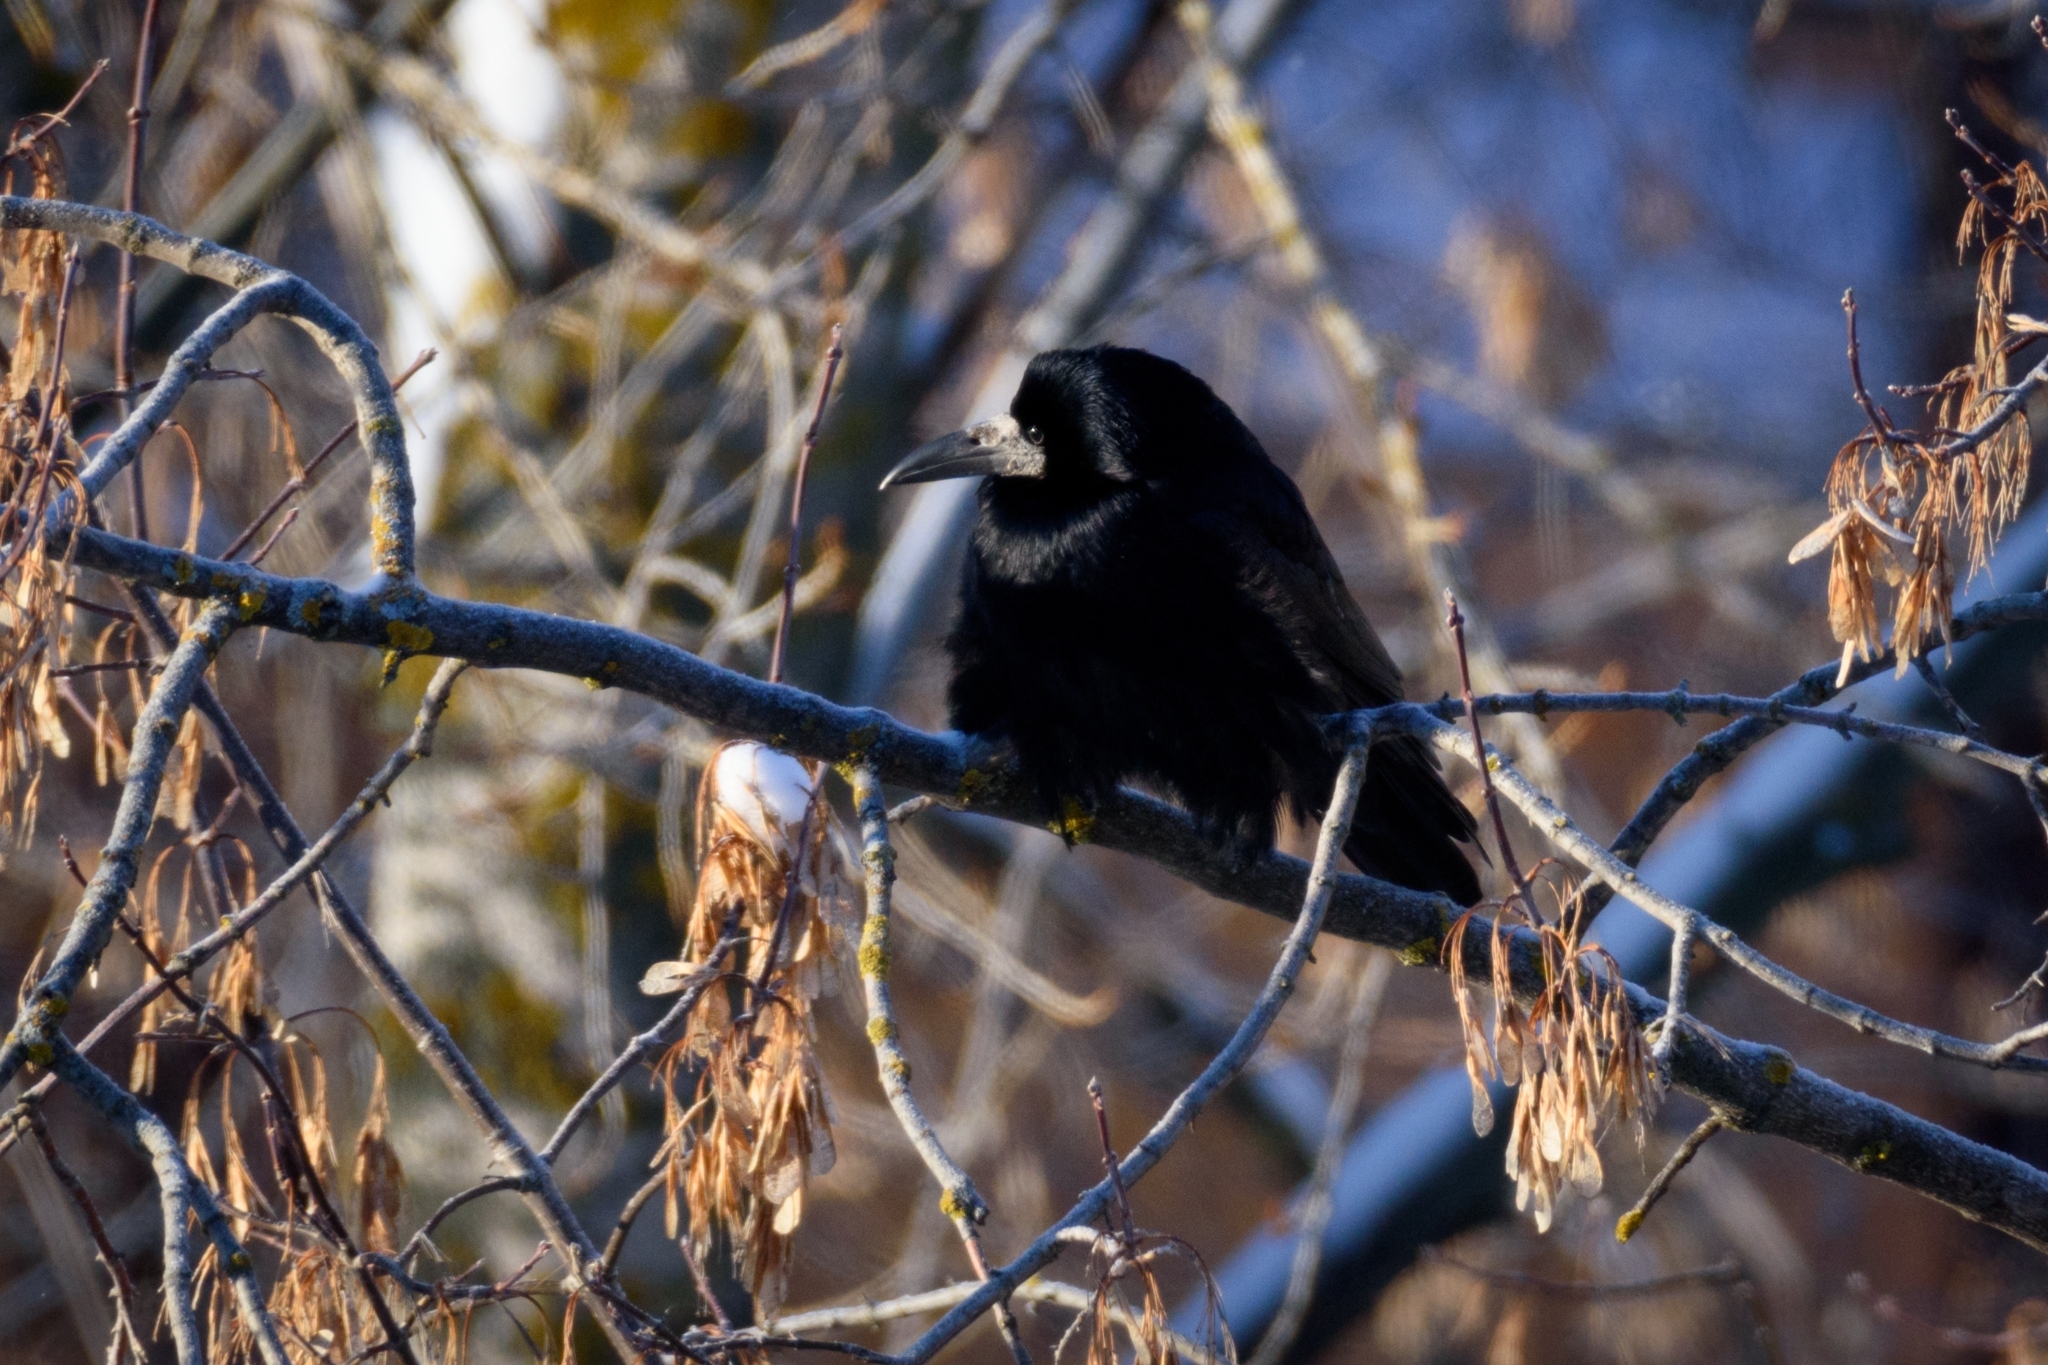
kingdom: Animalia
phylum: Chordata
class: Aves
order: Passeriformes
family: Corvidae
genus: Corvus
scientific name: Corvus frugilegus
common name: Rook
